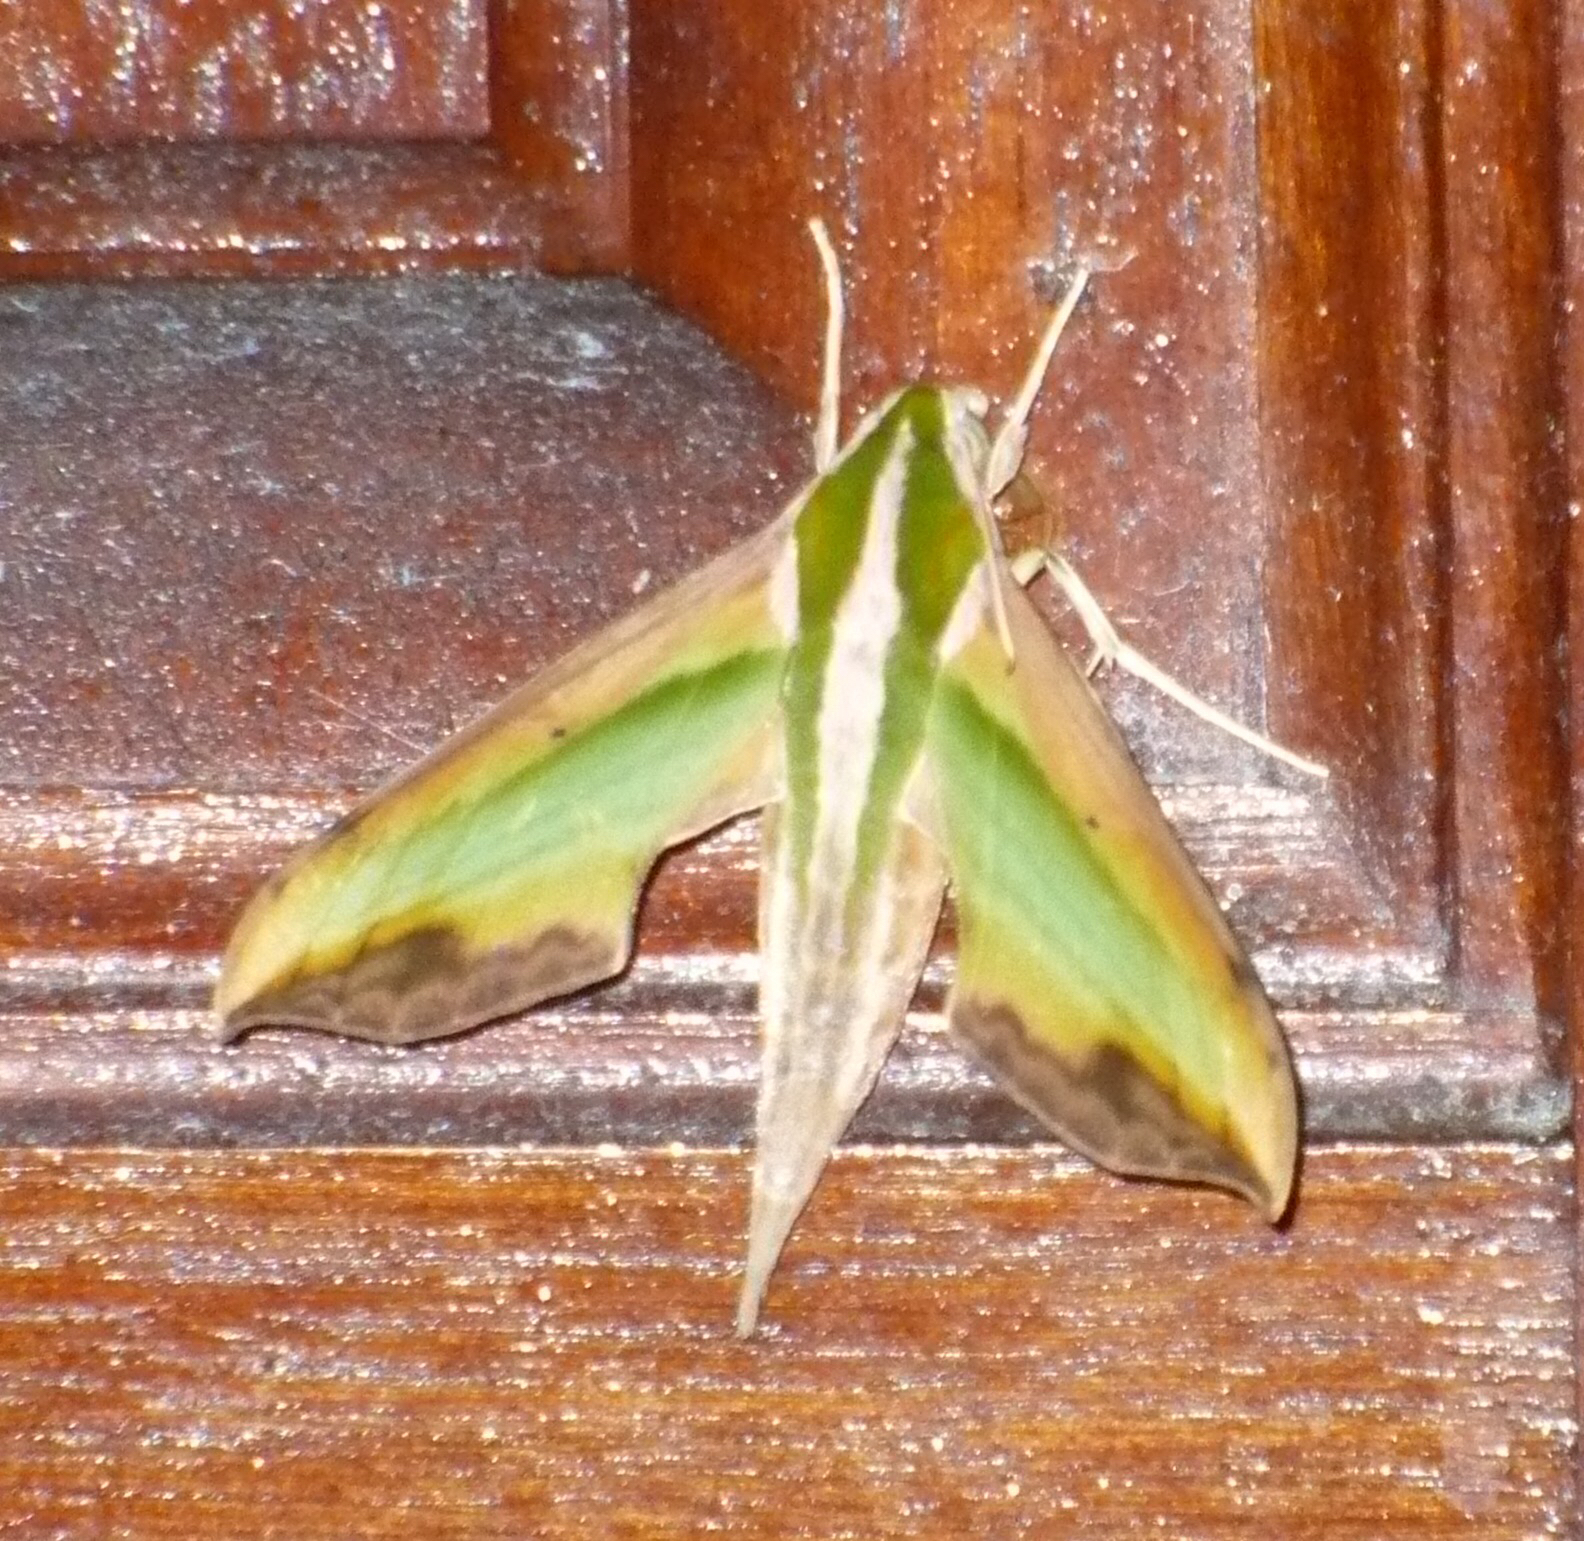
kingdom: Animalia
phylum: Arthropoda
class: Insecta
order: Lepidoptera
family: Sphingidae
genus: Pergesa
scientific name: Pergesa acteus
